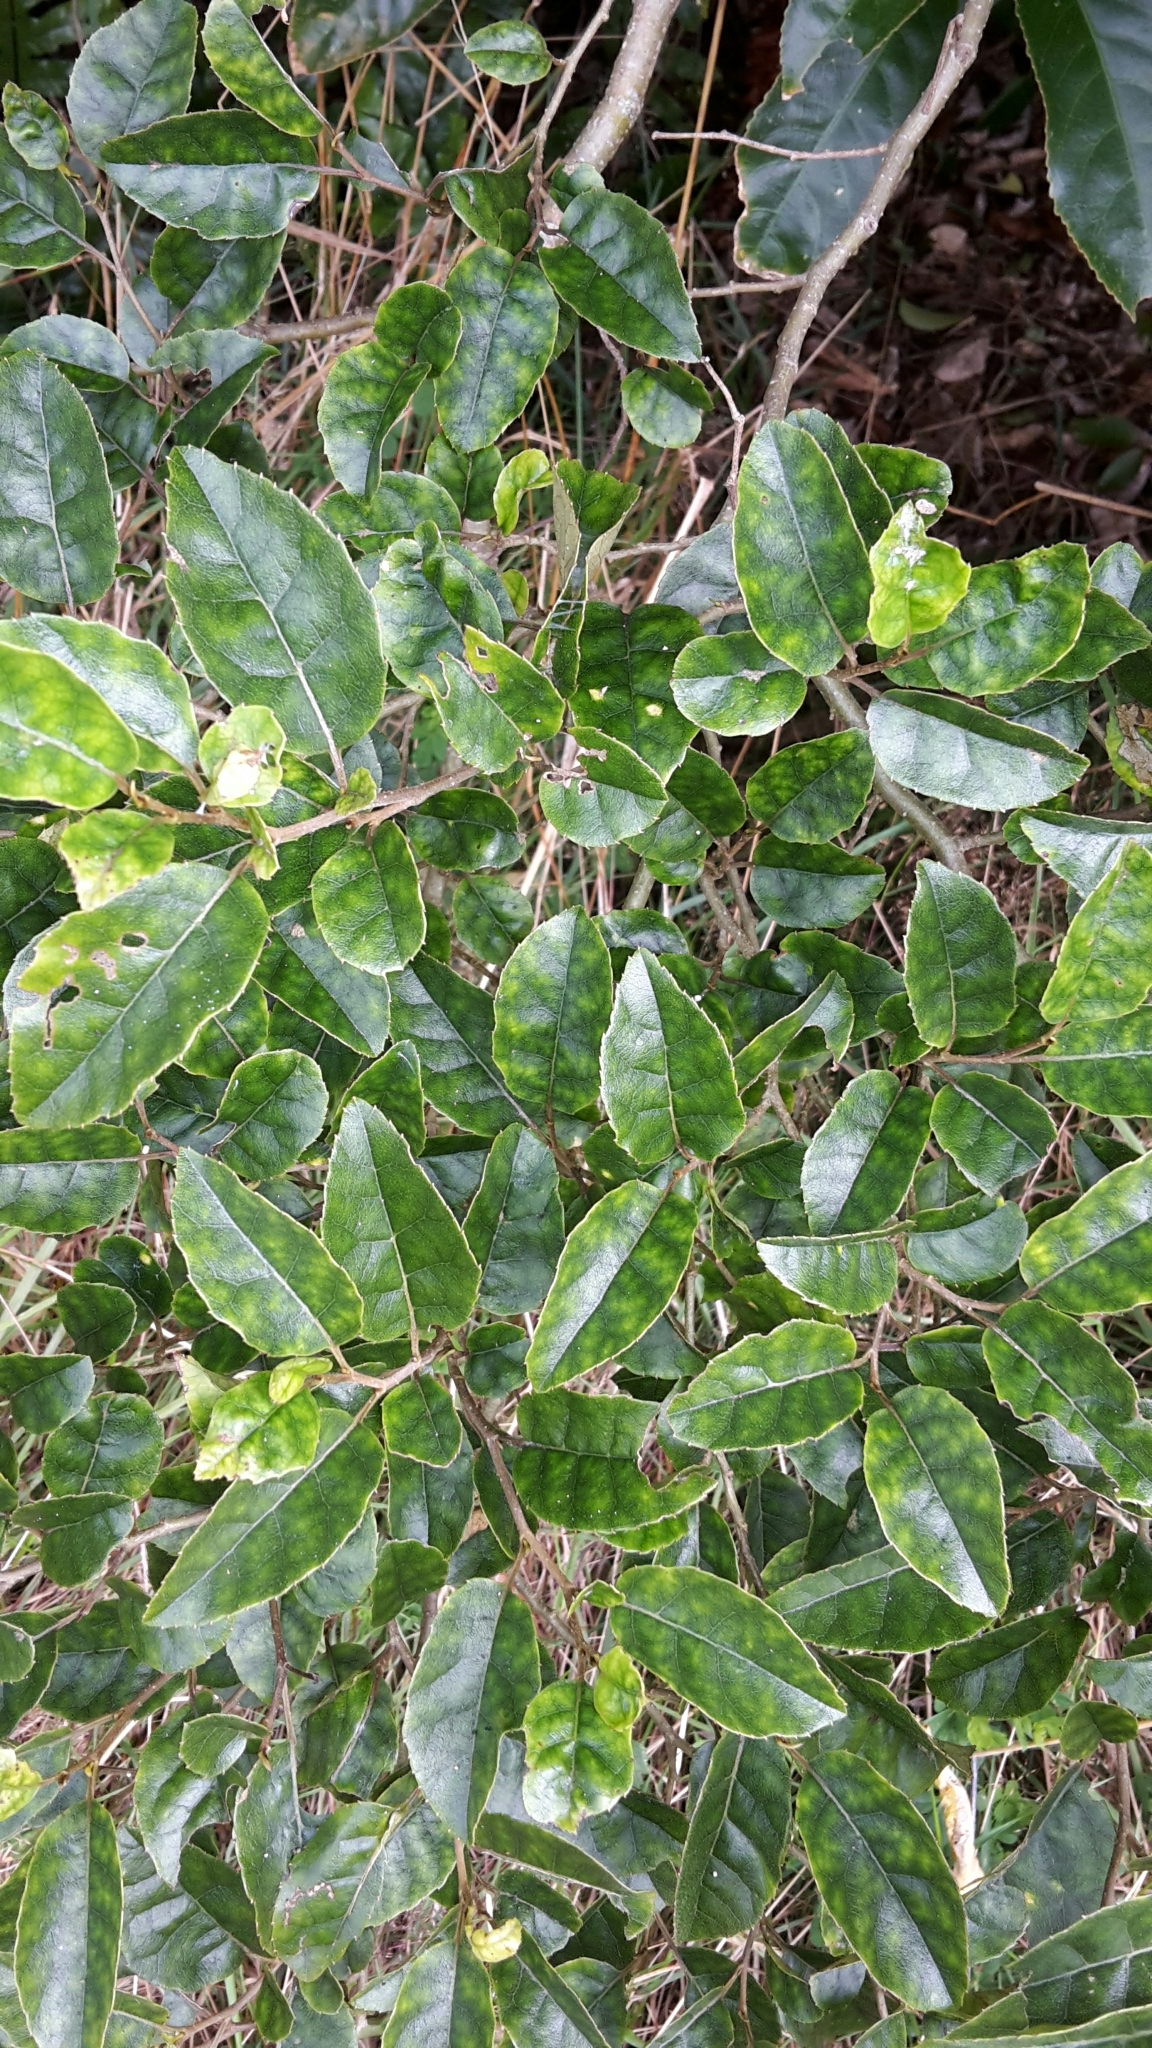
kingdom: Plantae
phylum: Tracheophyta
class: Magnoliopsida
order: Asterales
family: Rousseaceae
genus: Carpodetus
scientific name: Carpodetus serratus
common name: White mapau
